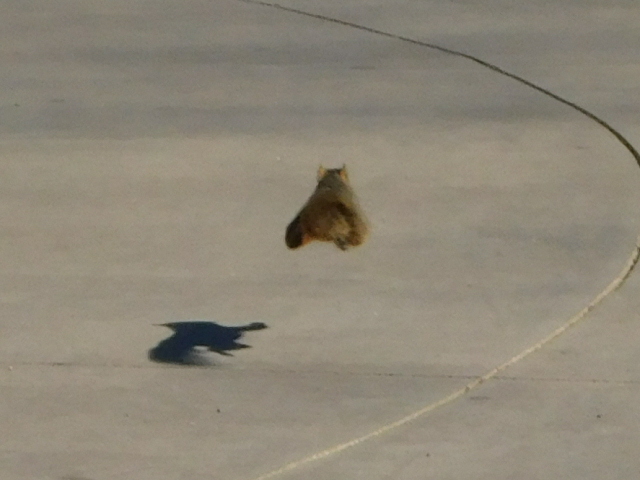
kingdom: Animalia
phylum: Chordata
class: Mammalia
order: Rodentia
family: Sciuridae
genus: Sciurus
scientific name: Sciurus niger
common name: Fox squirrel
